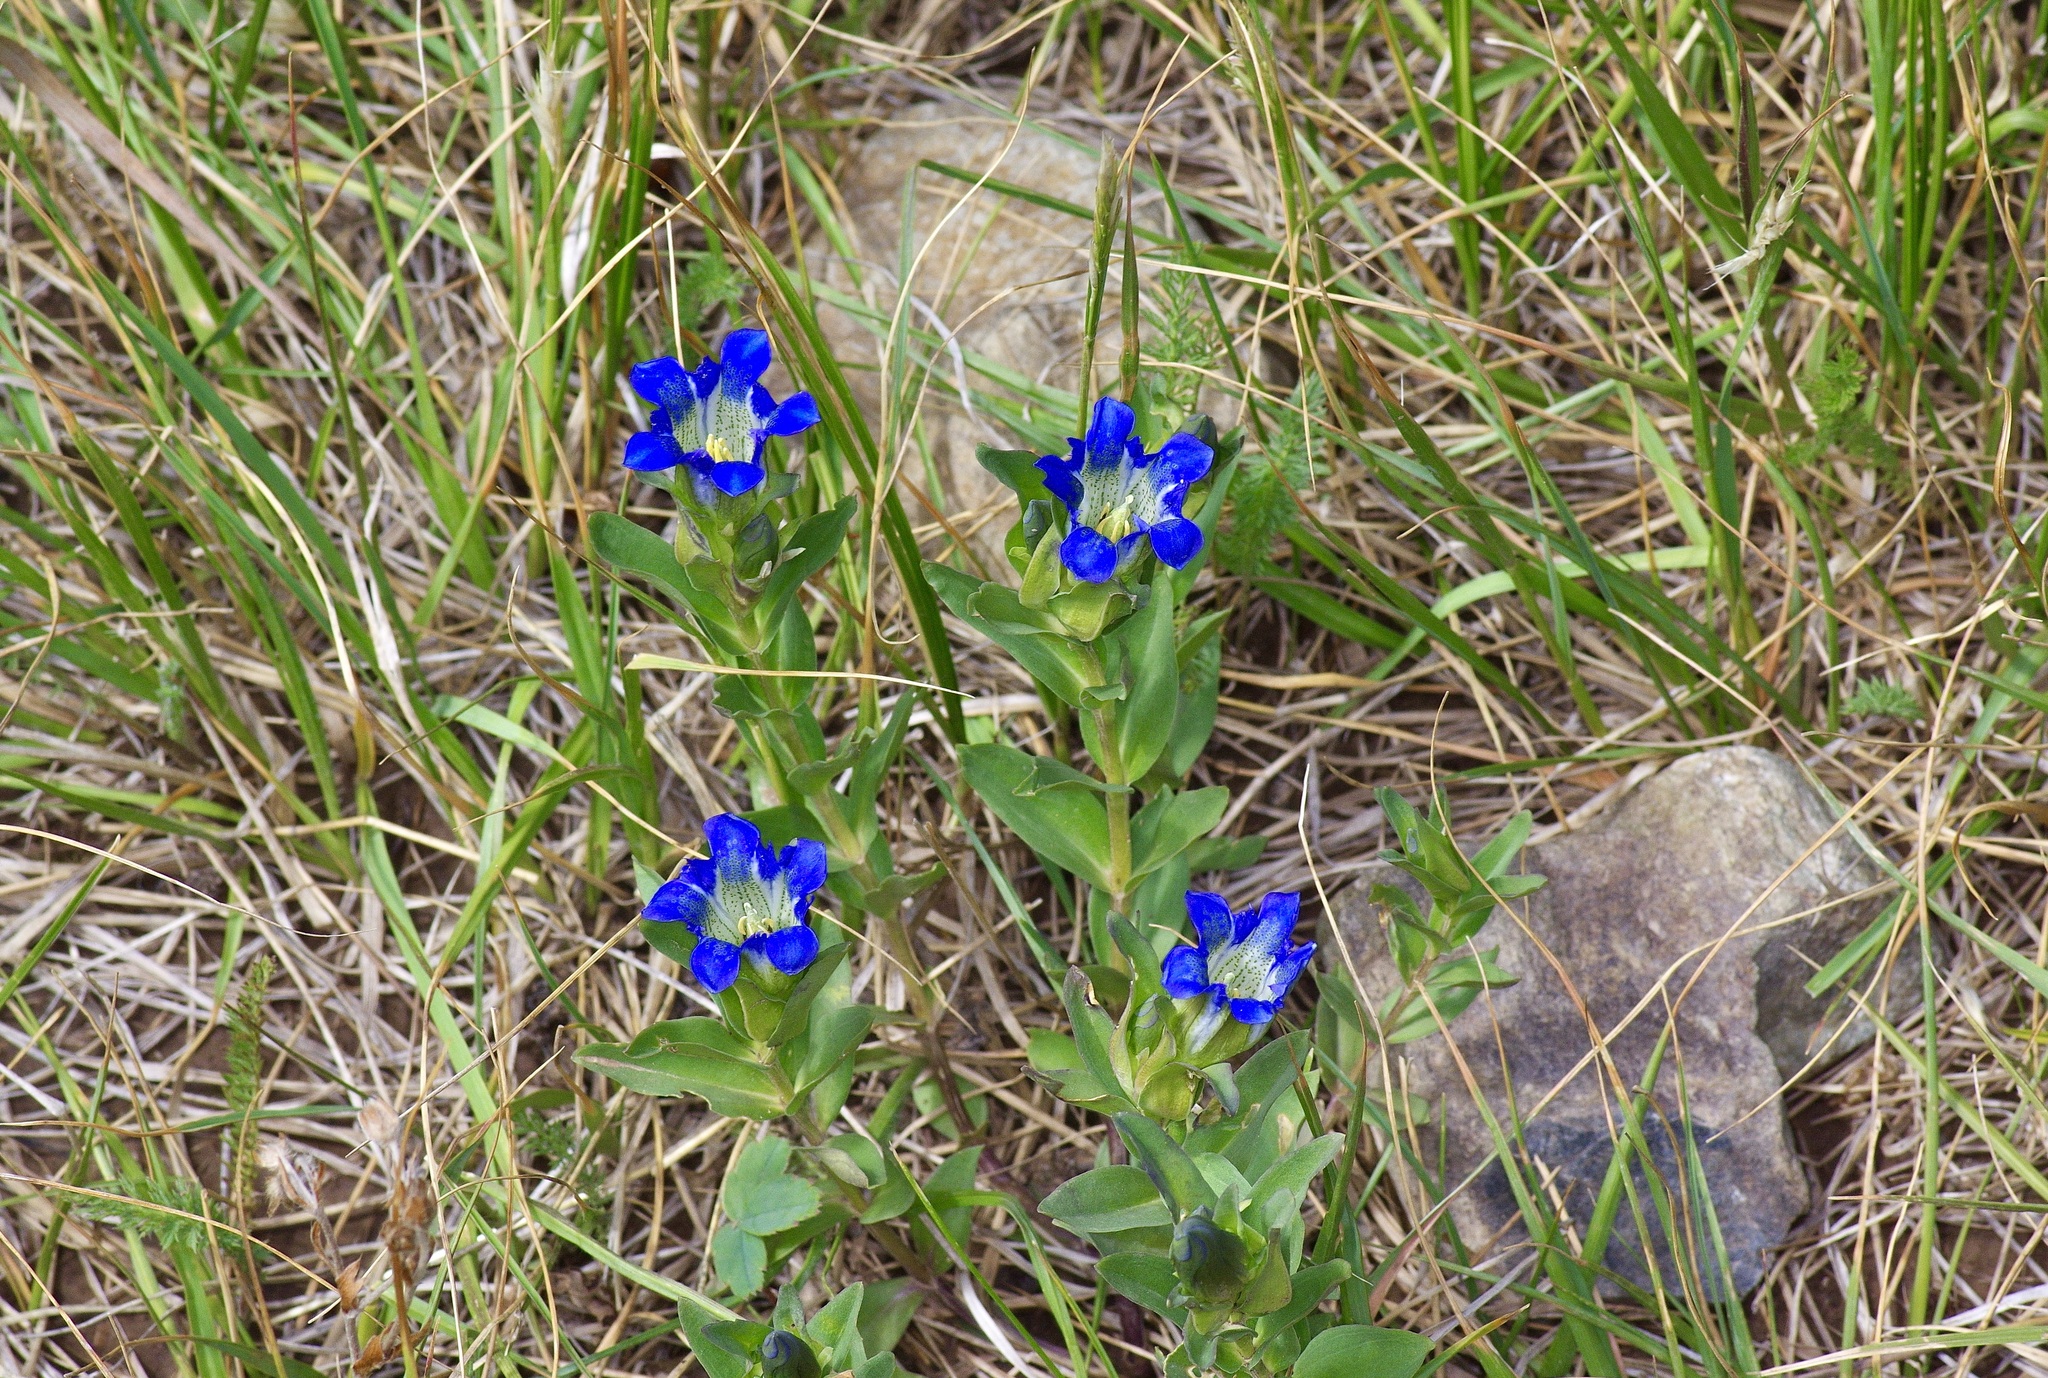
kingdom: Plantae
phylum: Tracheophyta
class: Magnoliopsida
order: Gentianales
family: Gentianaceae
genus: Gentiana
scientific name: Gentiana parryi
